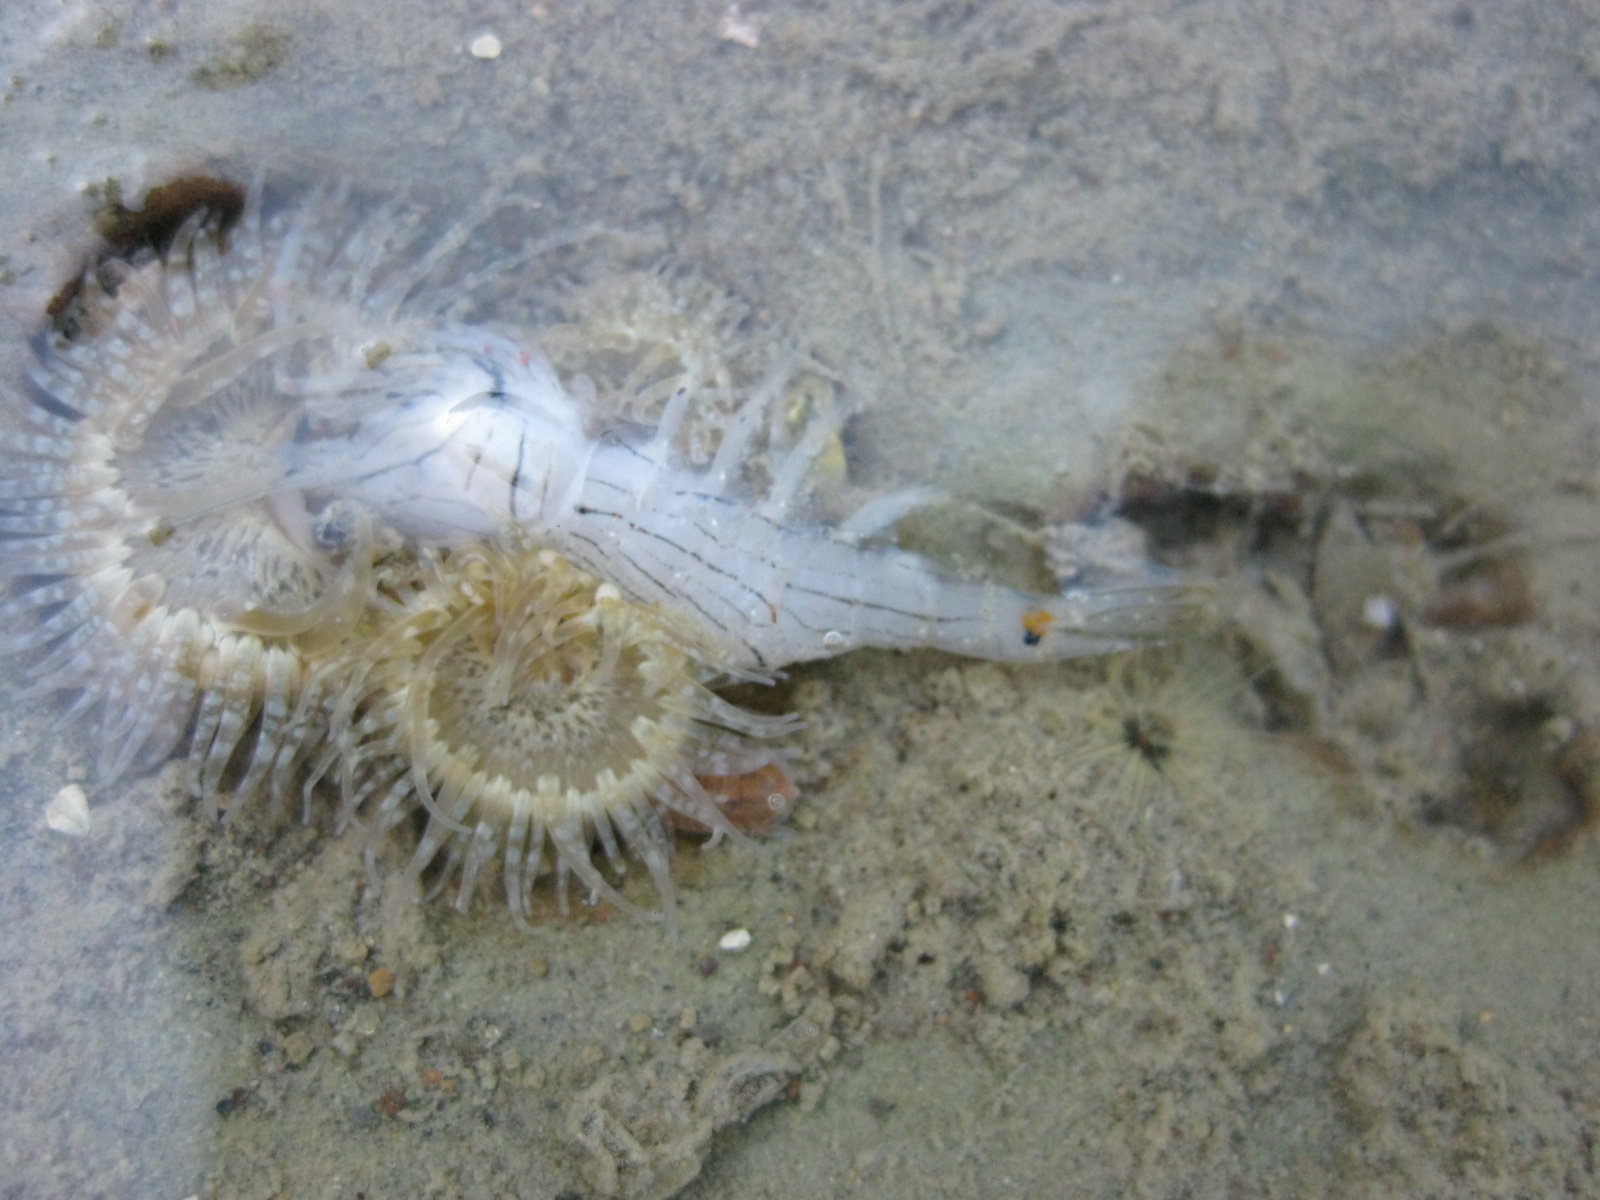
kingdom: Animalia
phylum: Arthropoda
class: Malacostraca
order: Decapoda
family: Palaemonidae
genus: Palaemon
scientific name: Palaemon affinis
